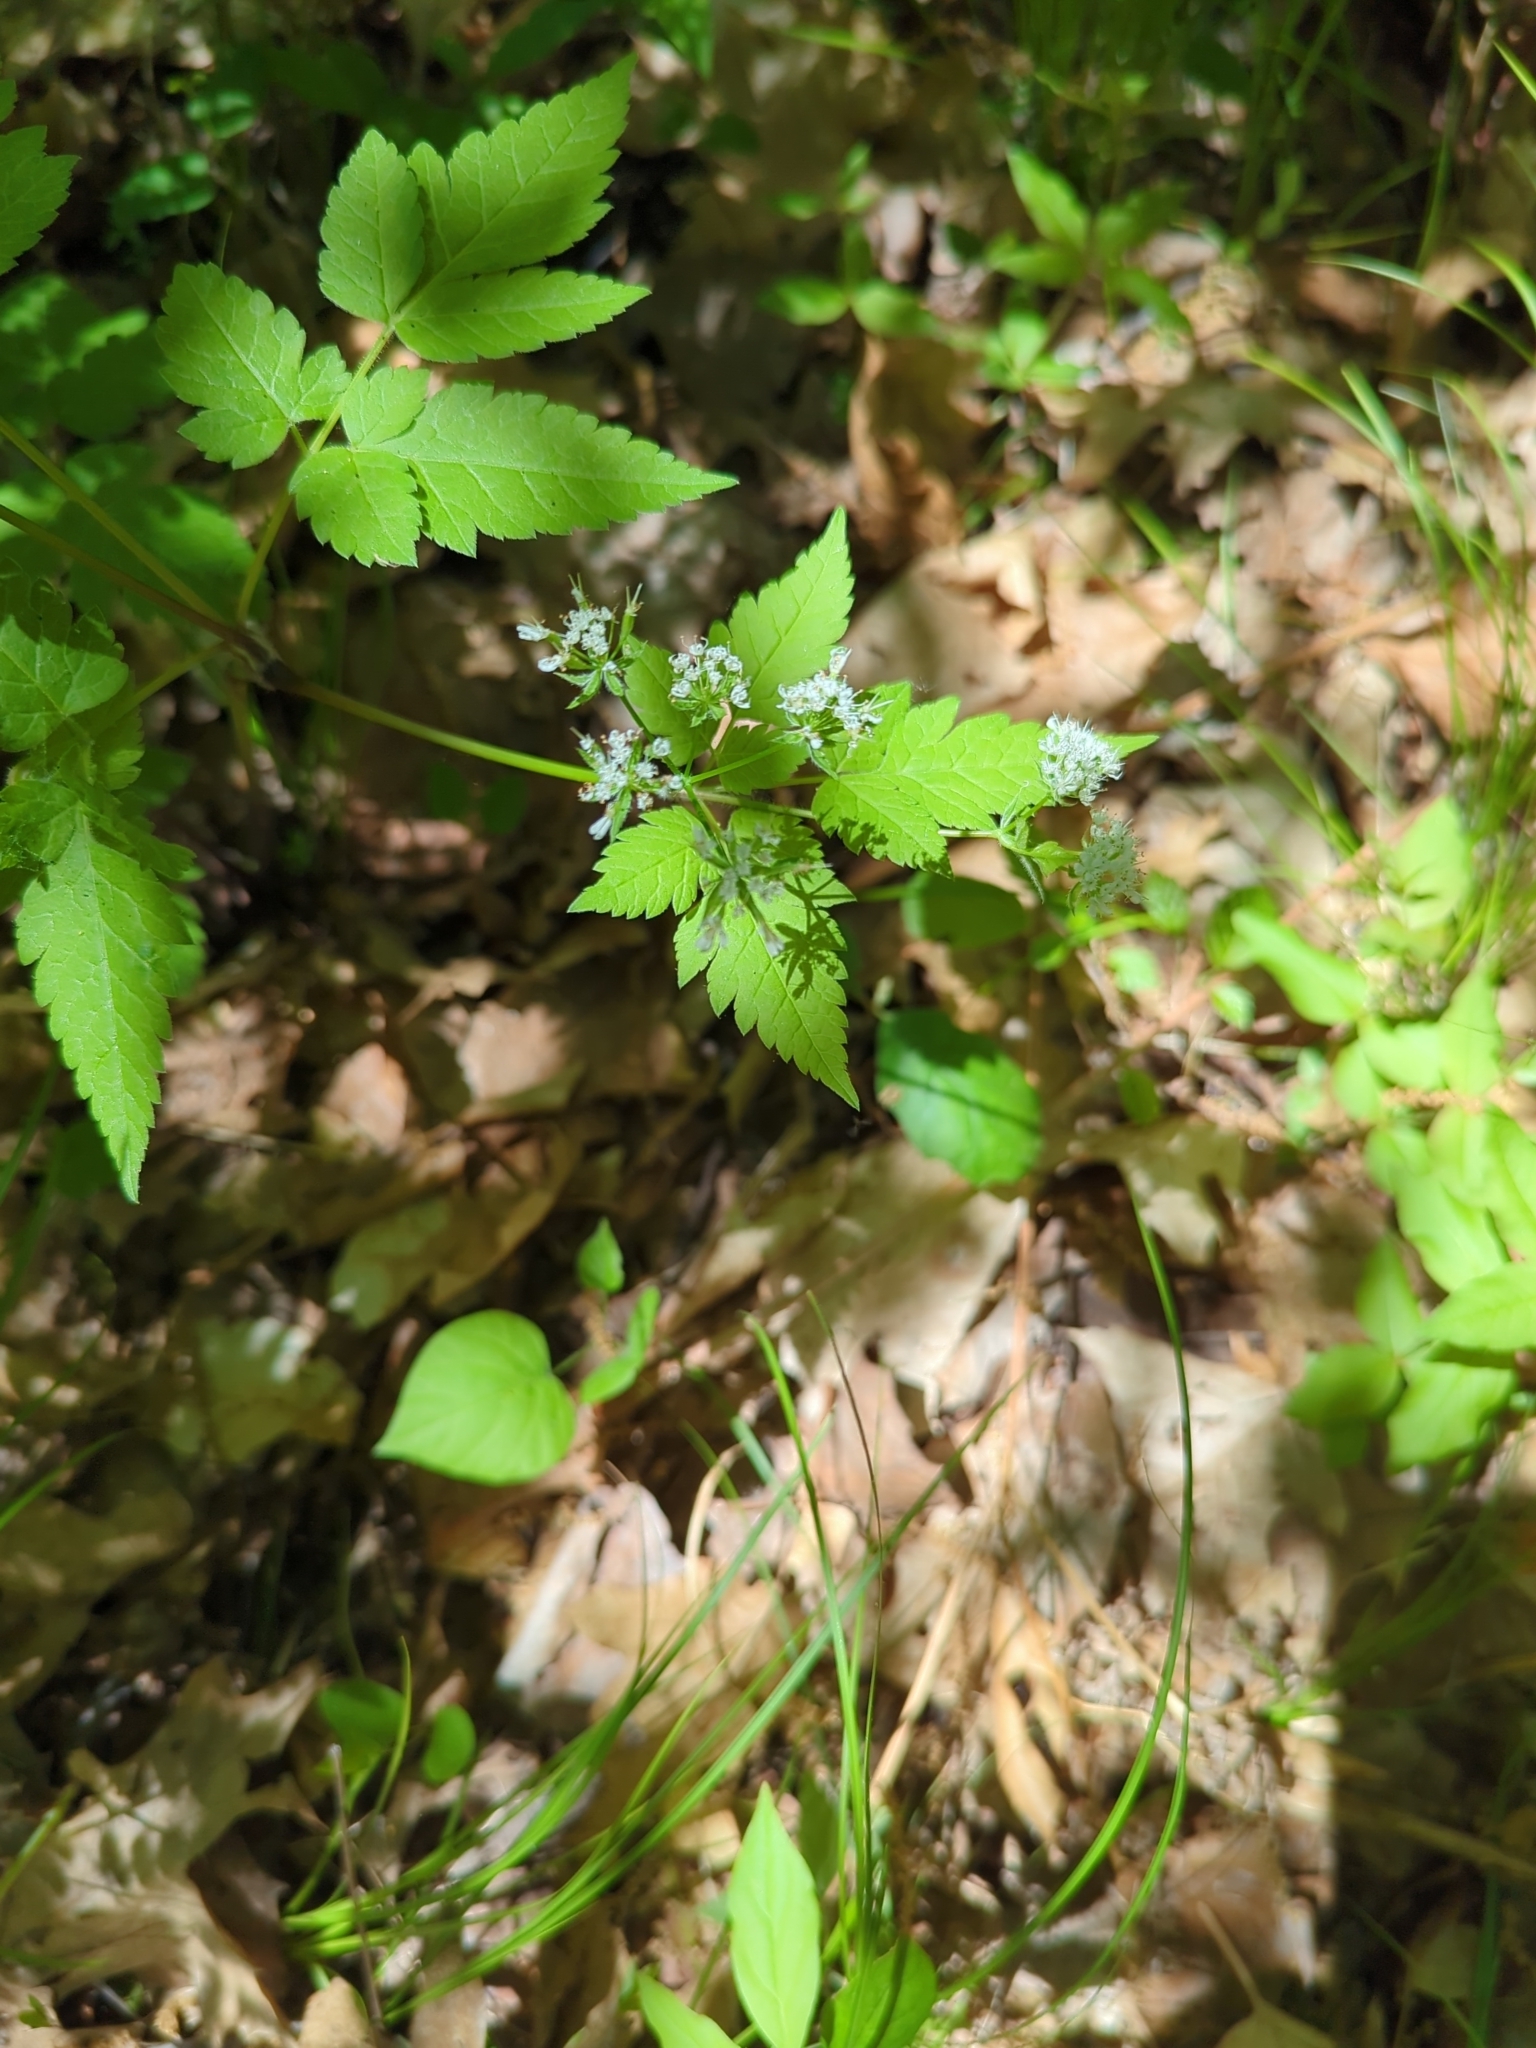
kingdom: Plantae
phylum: Tracheophyta
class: Magnoliopsida
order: Apiales
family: Apiaceae
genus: Osmorhiza
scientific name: Osmorhiza longistylis
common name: Smooth sweet cicely
